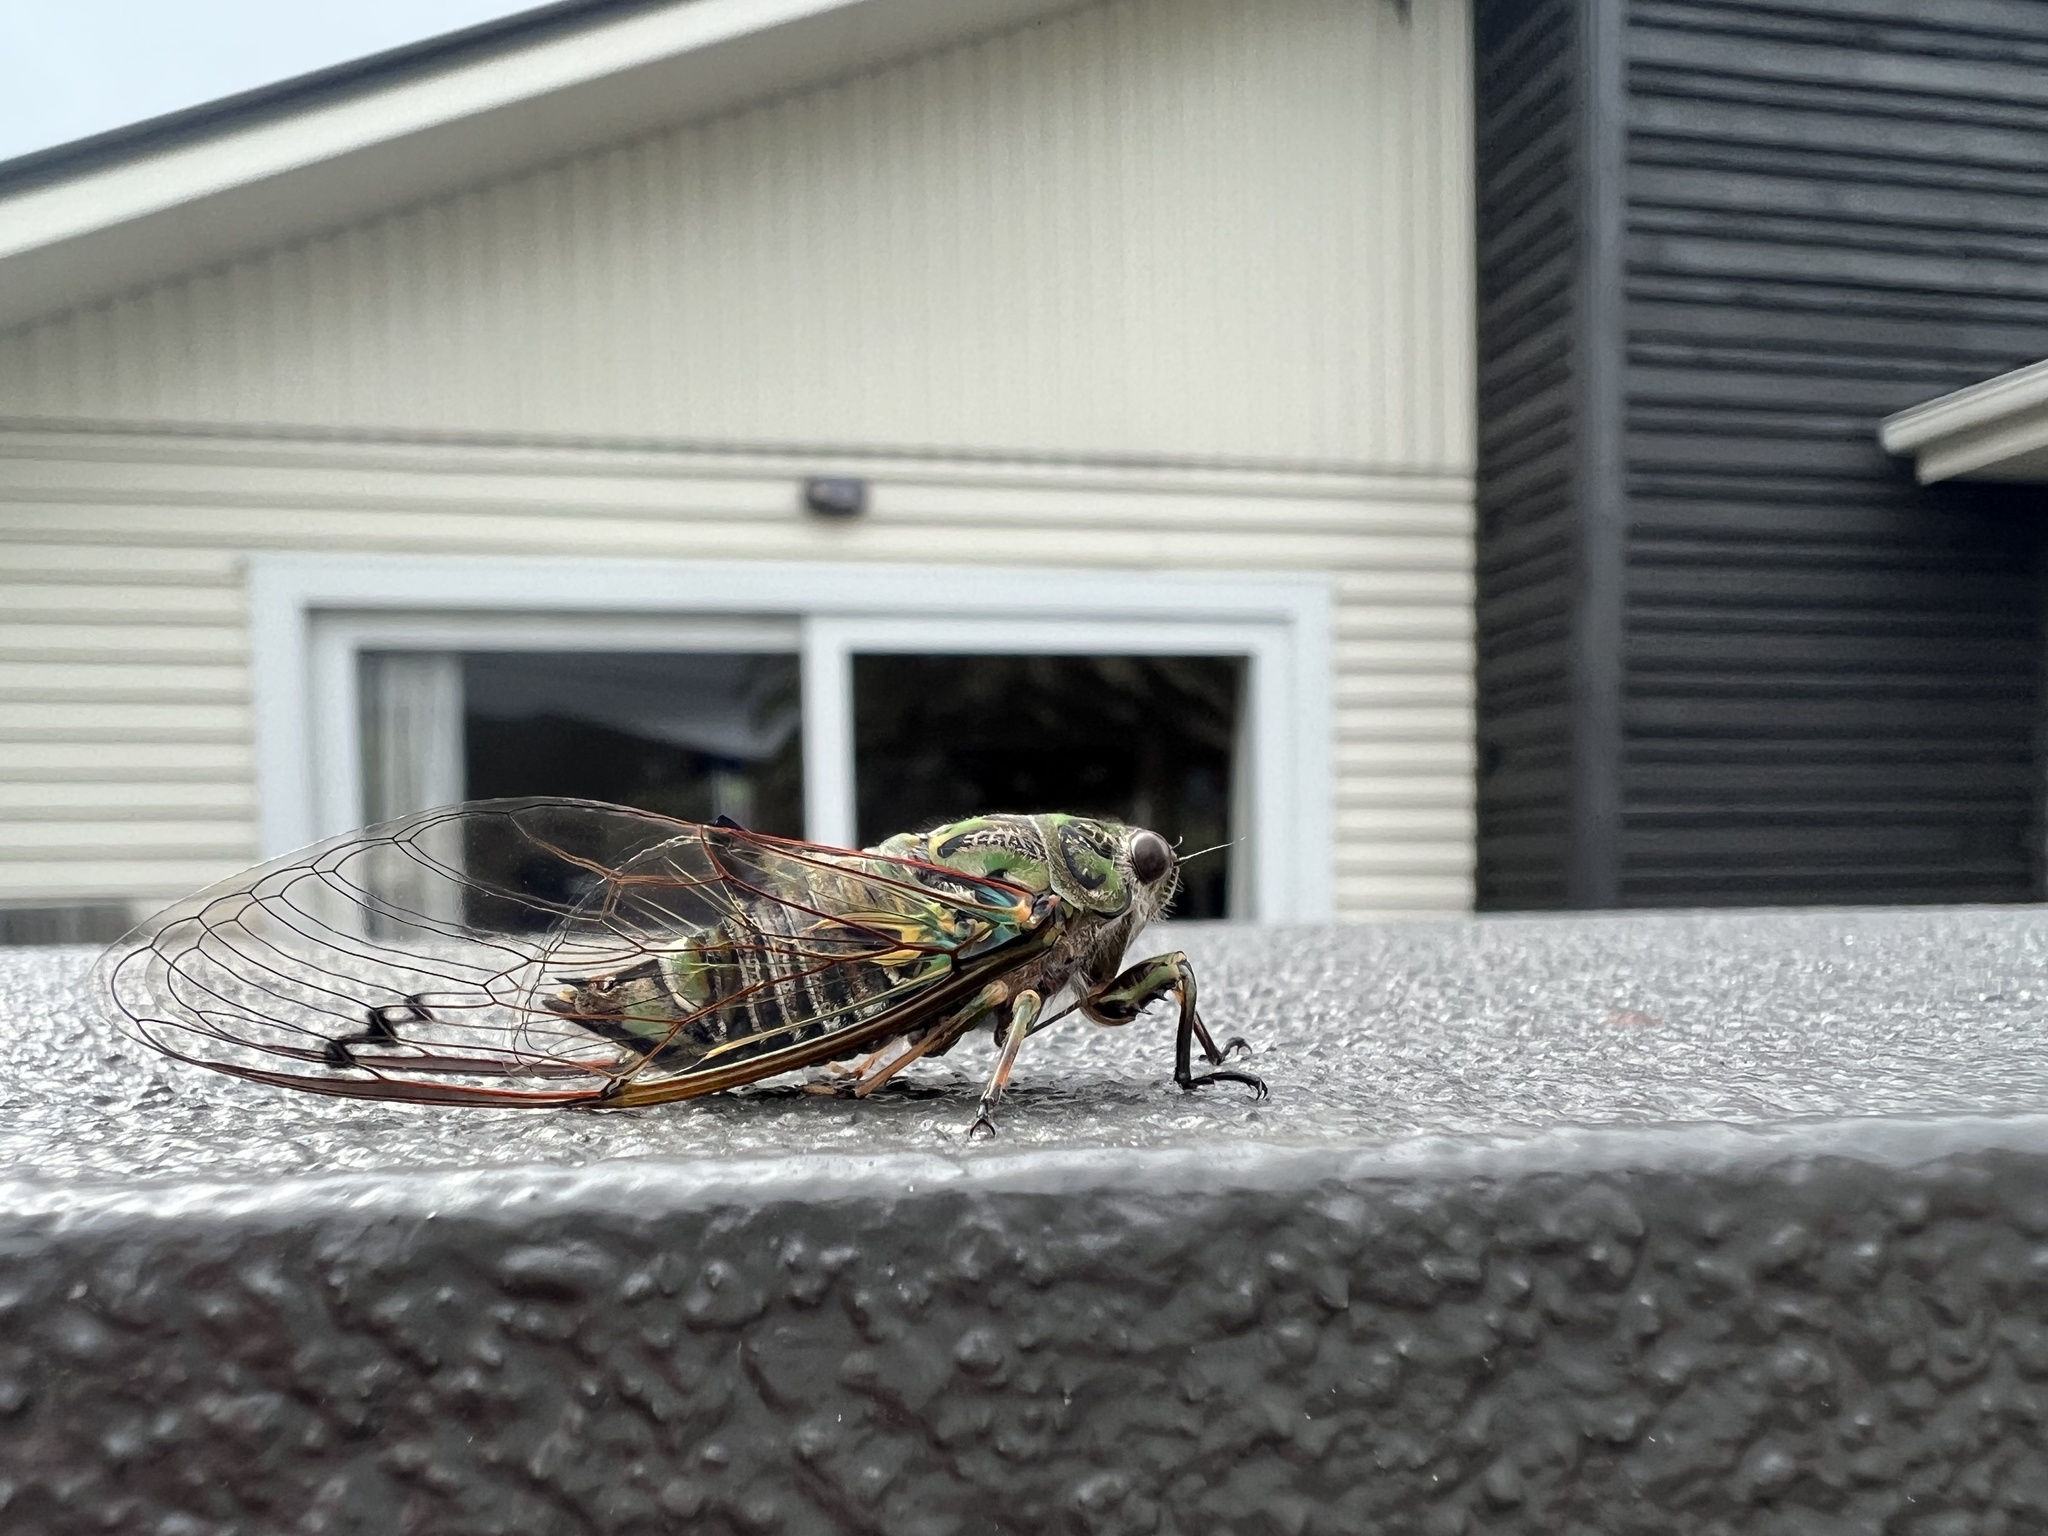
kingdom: Animalia
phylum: Arthropoda
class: Insecta
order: Hemiptera
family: Cicadidae
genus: Amphipsalta
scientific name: Amphipsalta zelandica
